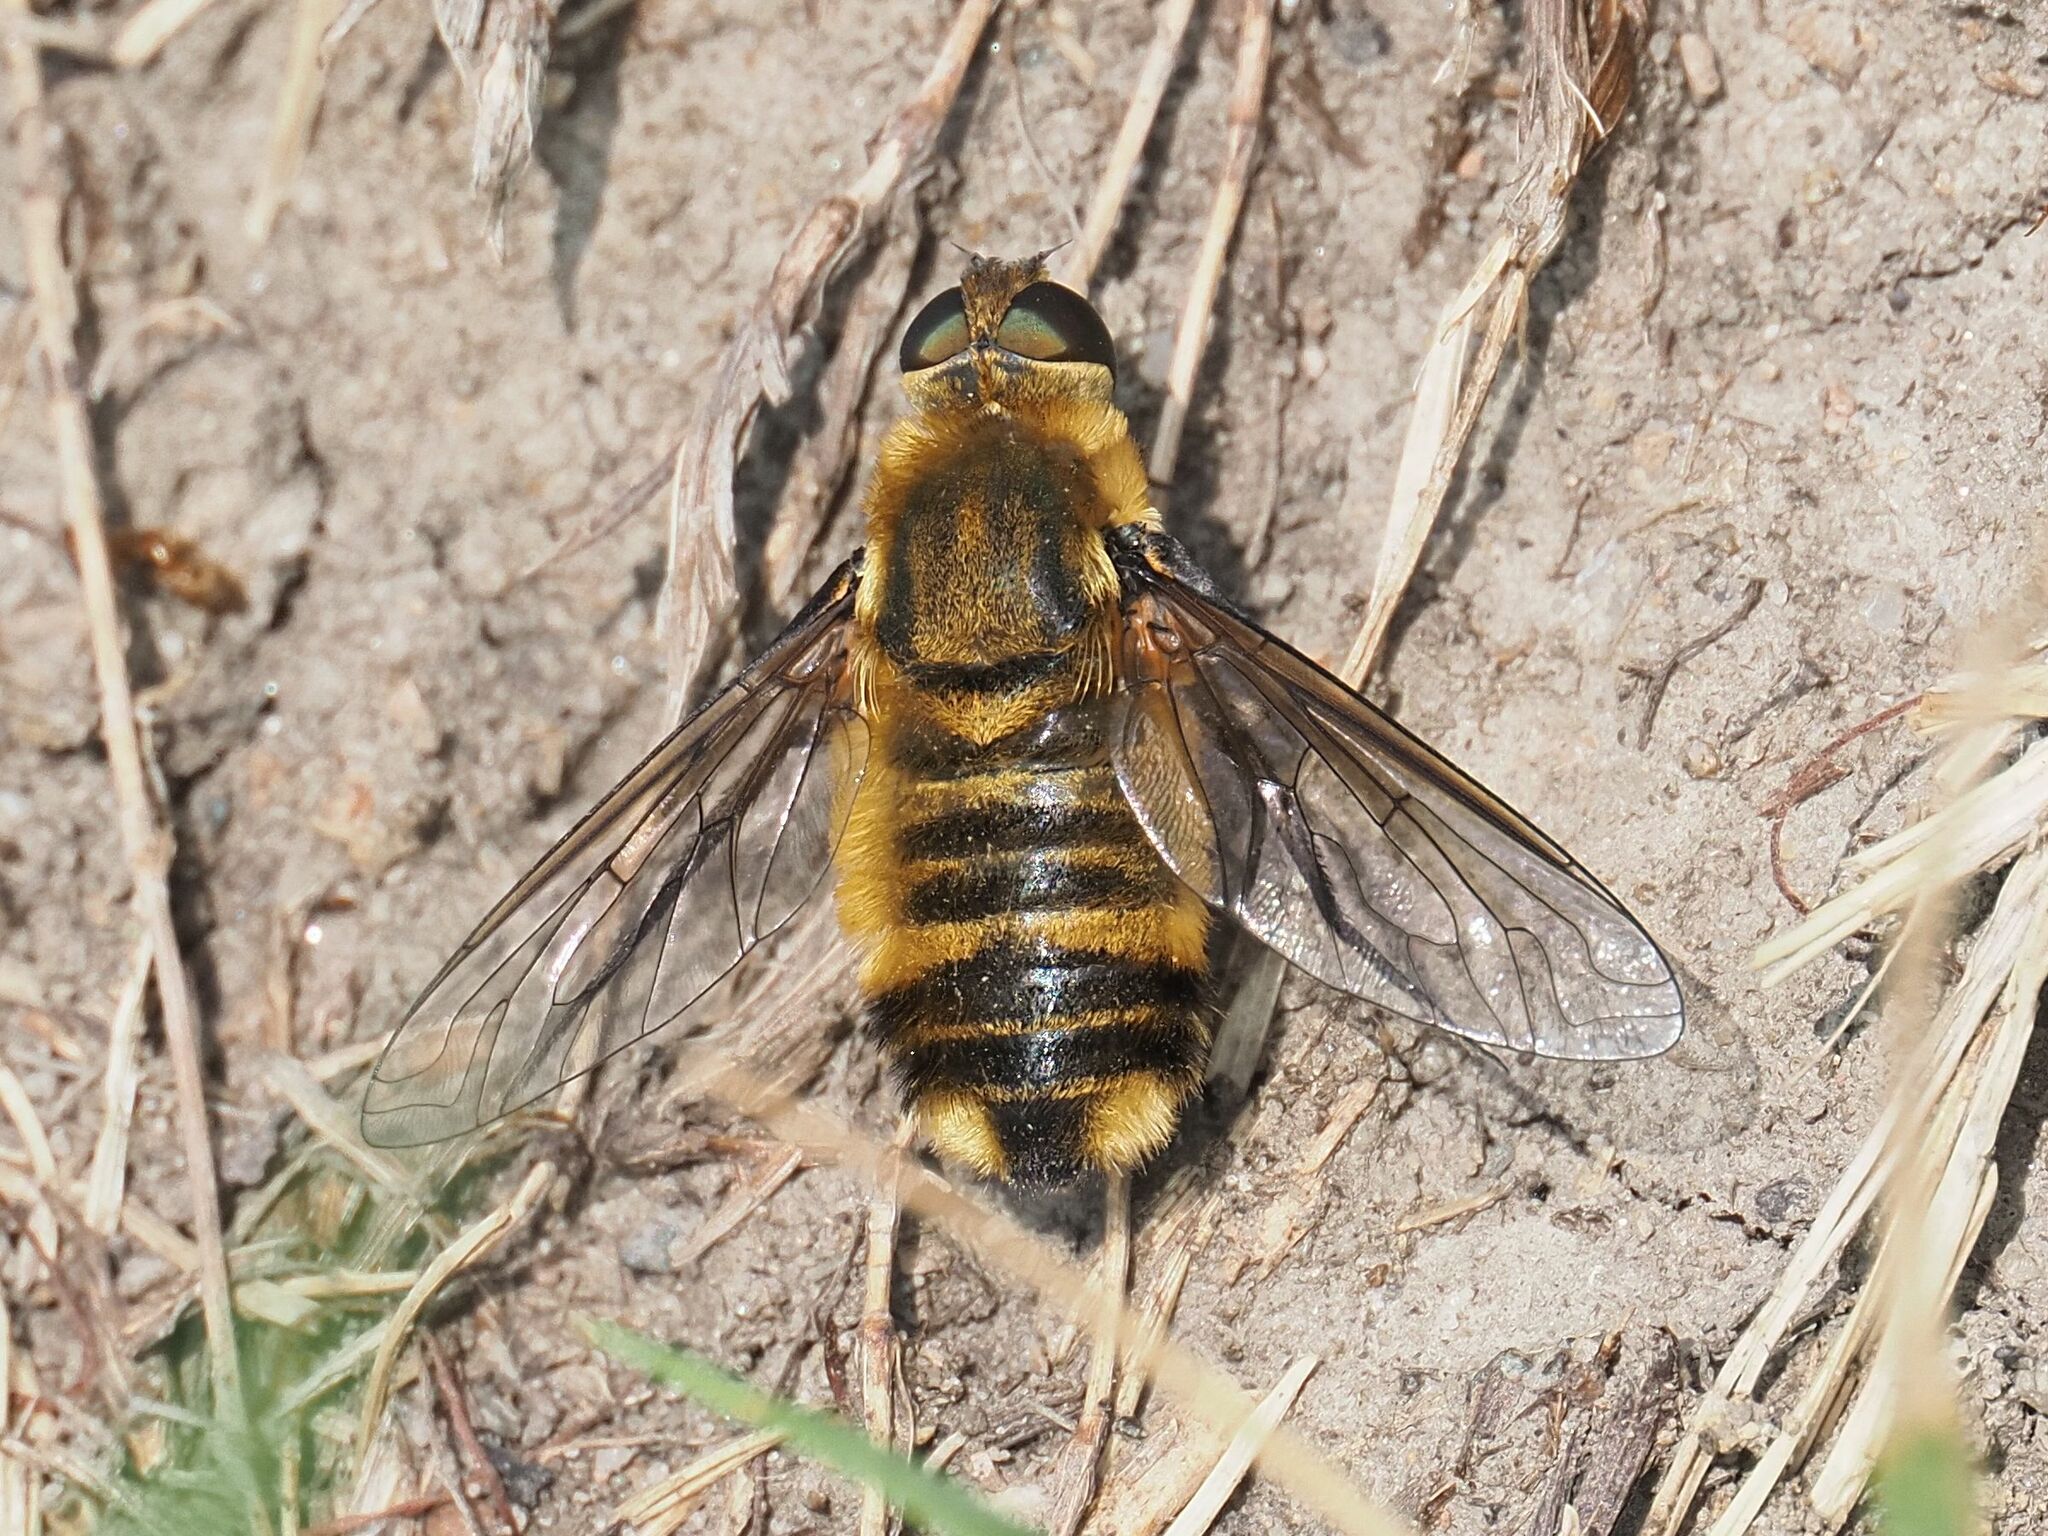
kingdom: Animalia
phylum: Arthropoda
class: Insecta
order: Diptera
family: Bombyliidae
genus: Villa
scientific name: Villa hottentotta
